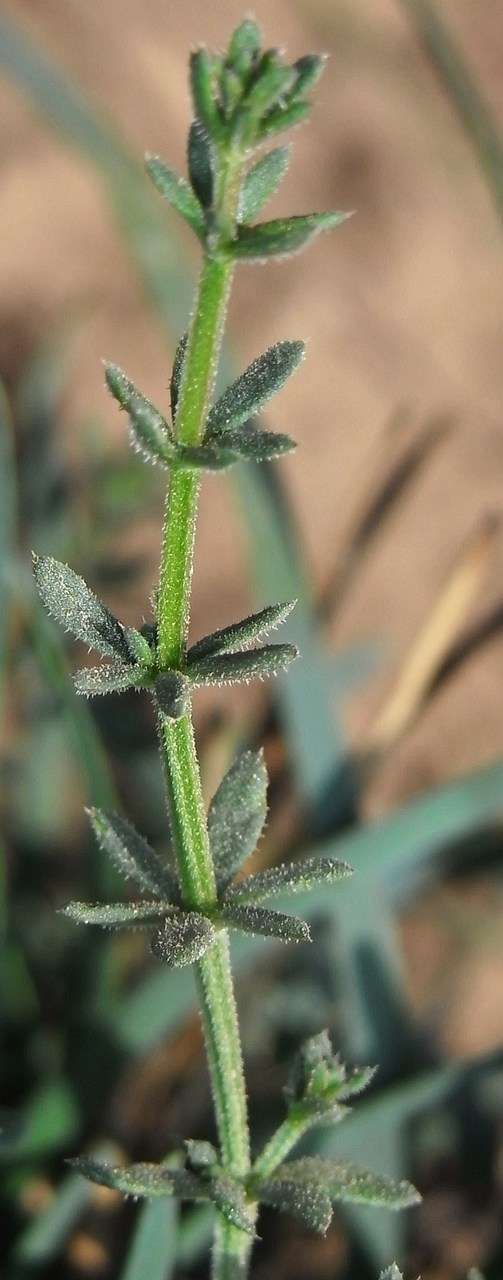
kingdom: Plantae
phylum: Tracheophyta
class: Magnoliopsida
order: Gentianales
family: Rubiaceae
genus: Asperula
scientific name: Asperula conferta
